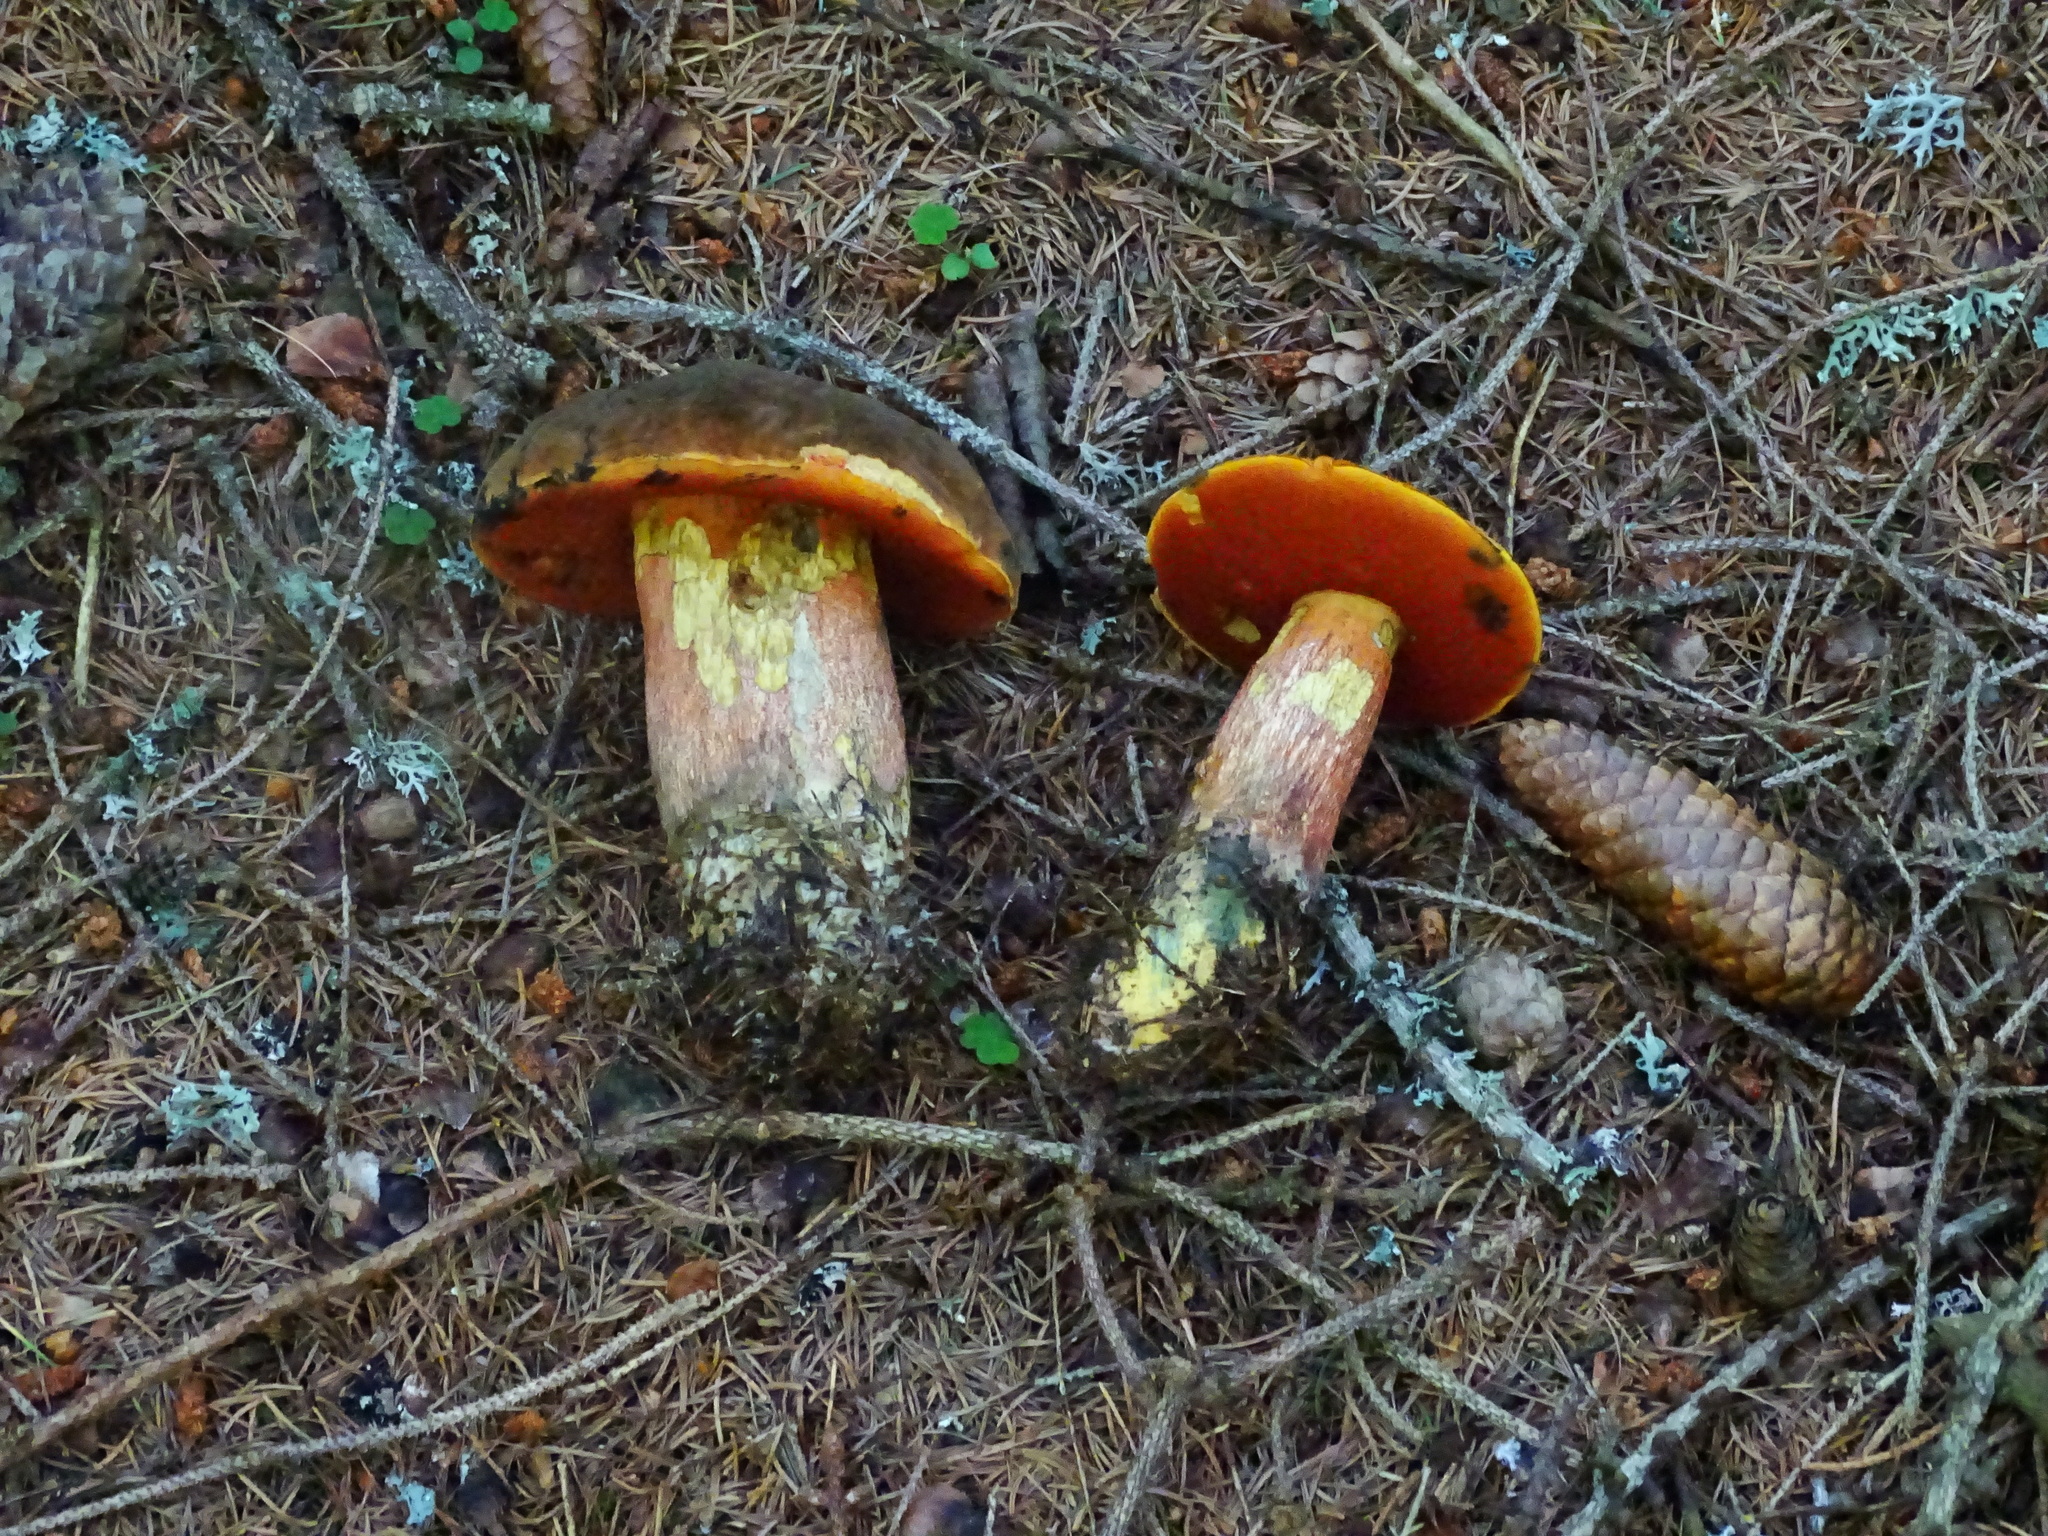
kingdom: Fungi
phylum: Basidiomycota
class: Agaricomycetes
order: Boletales
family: Boletaceae
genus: Neoboletus
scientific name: Neoboletus luridiformis
